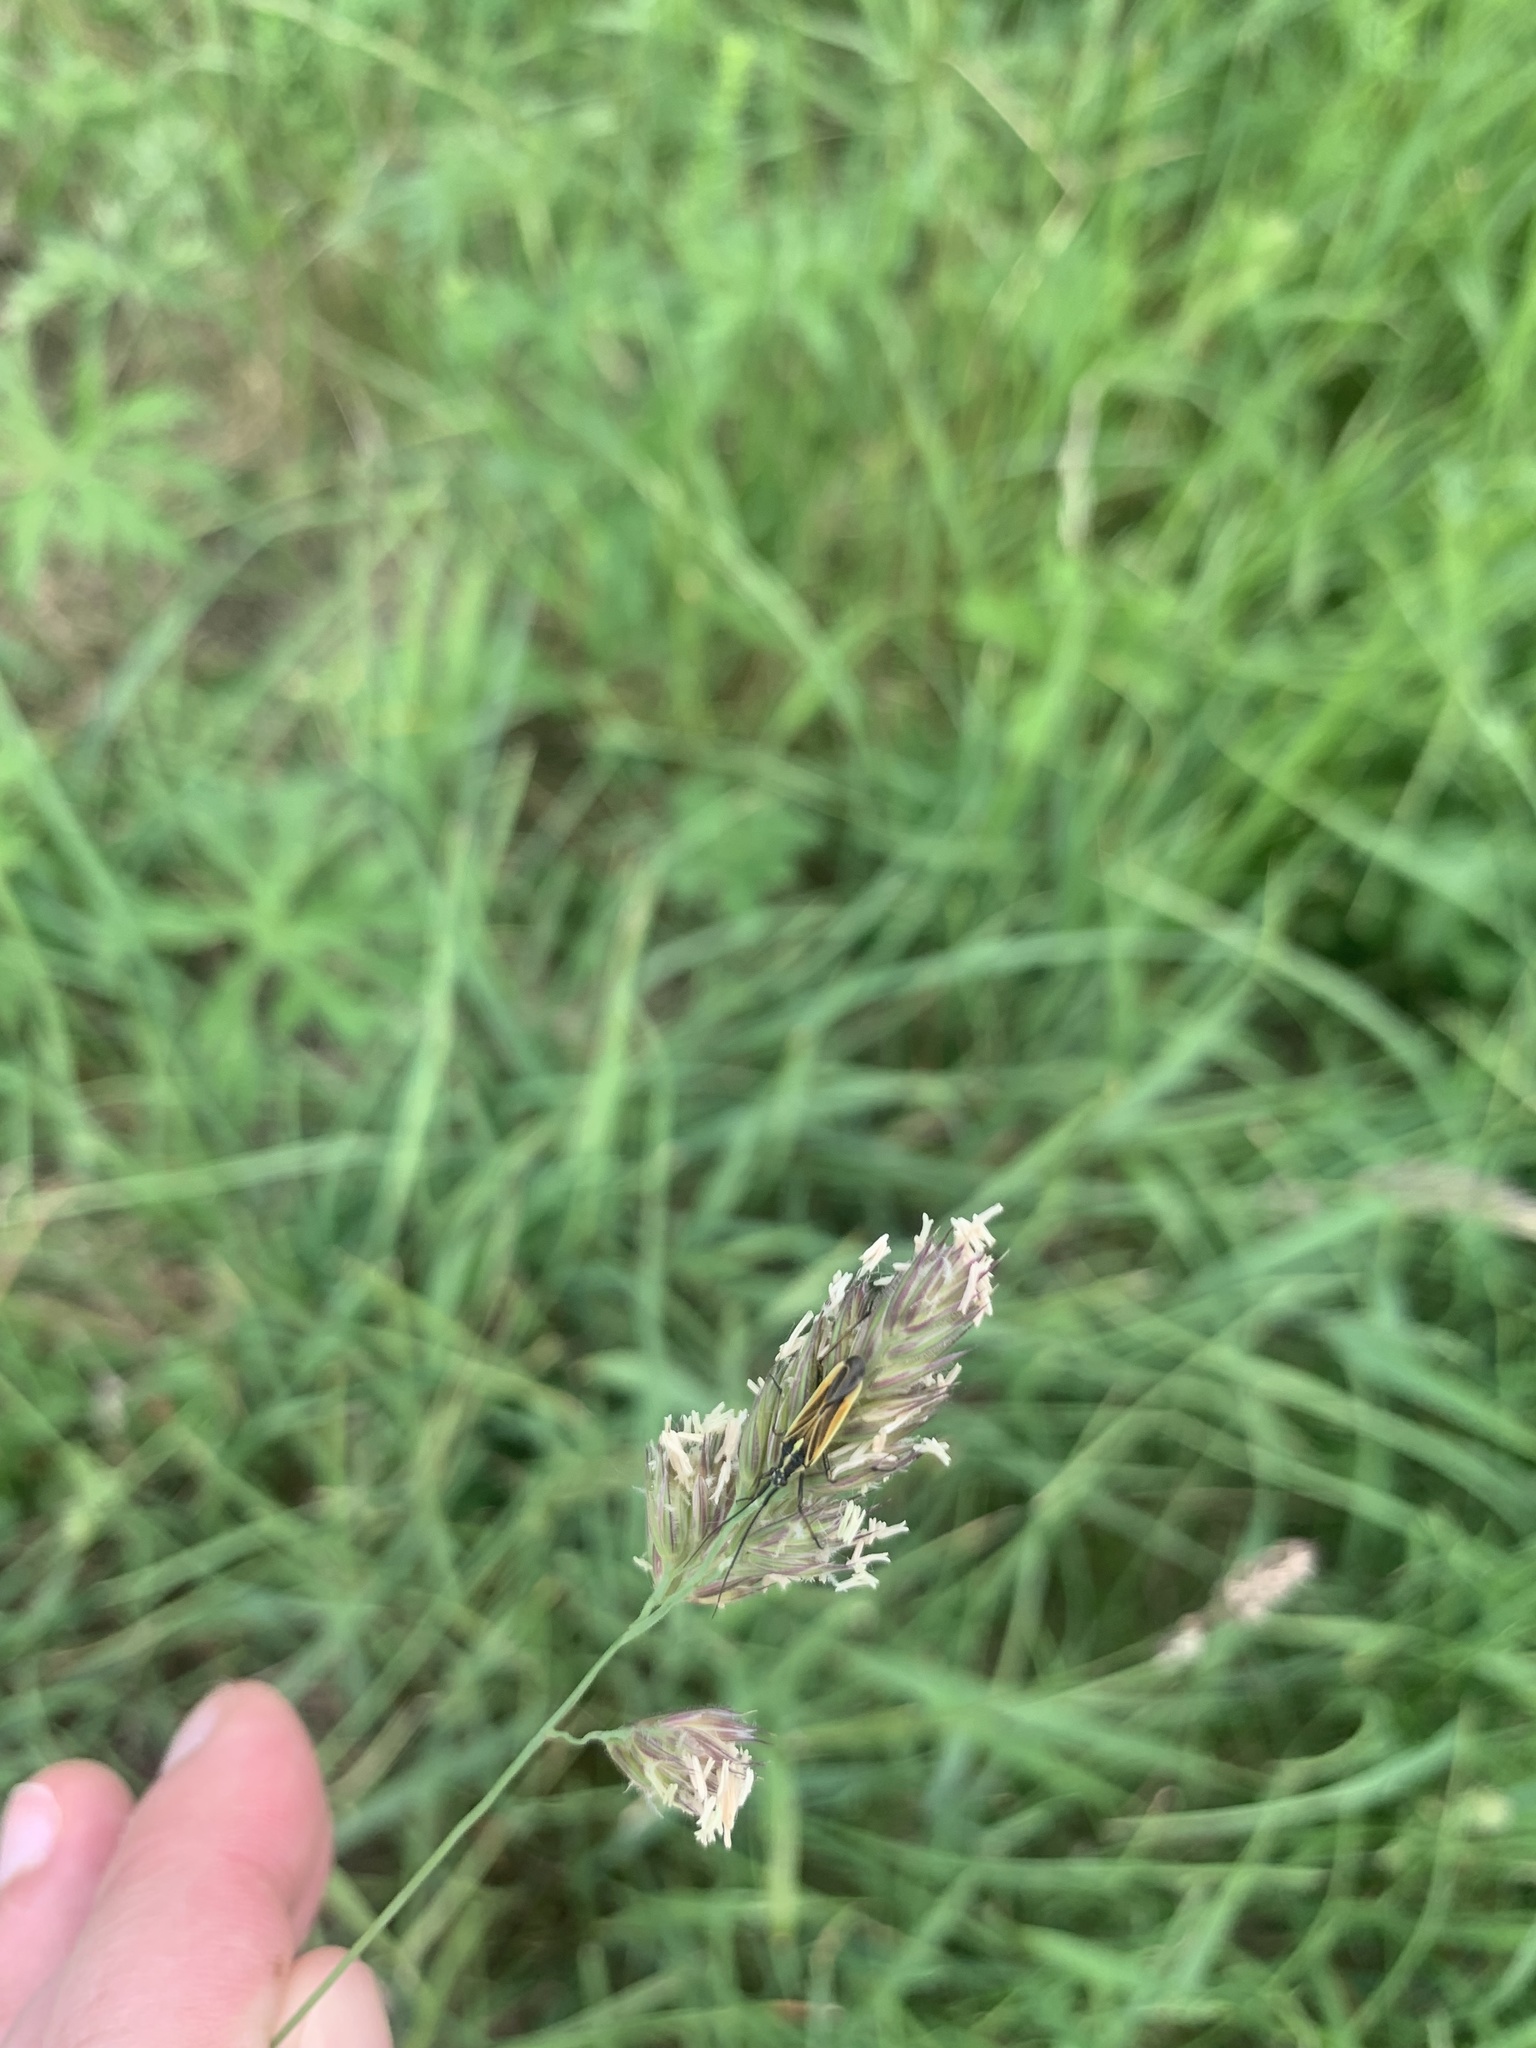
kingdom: Animalia
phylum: Arthropoda
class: Insecta
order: Hemiptera
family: Miridae
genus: Leptopterna
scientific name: Leptopterna dolabrata
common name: Meadow plant bug
